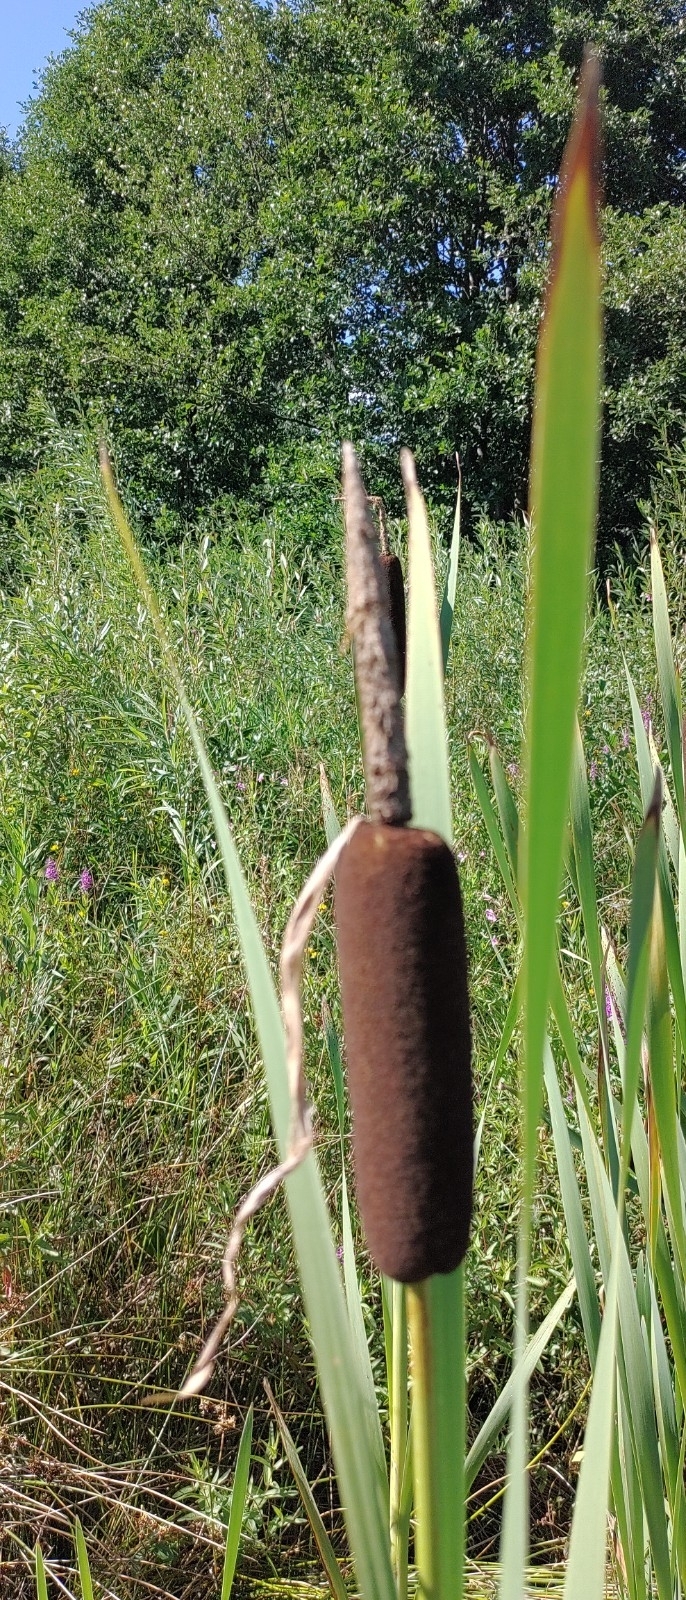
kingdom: Plantae
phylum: Tracheophyta
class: Liliopsida
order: Poales
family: Typhaceae
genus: Typha
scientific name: Typha latifolia
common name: Broadleaf cattail
